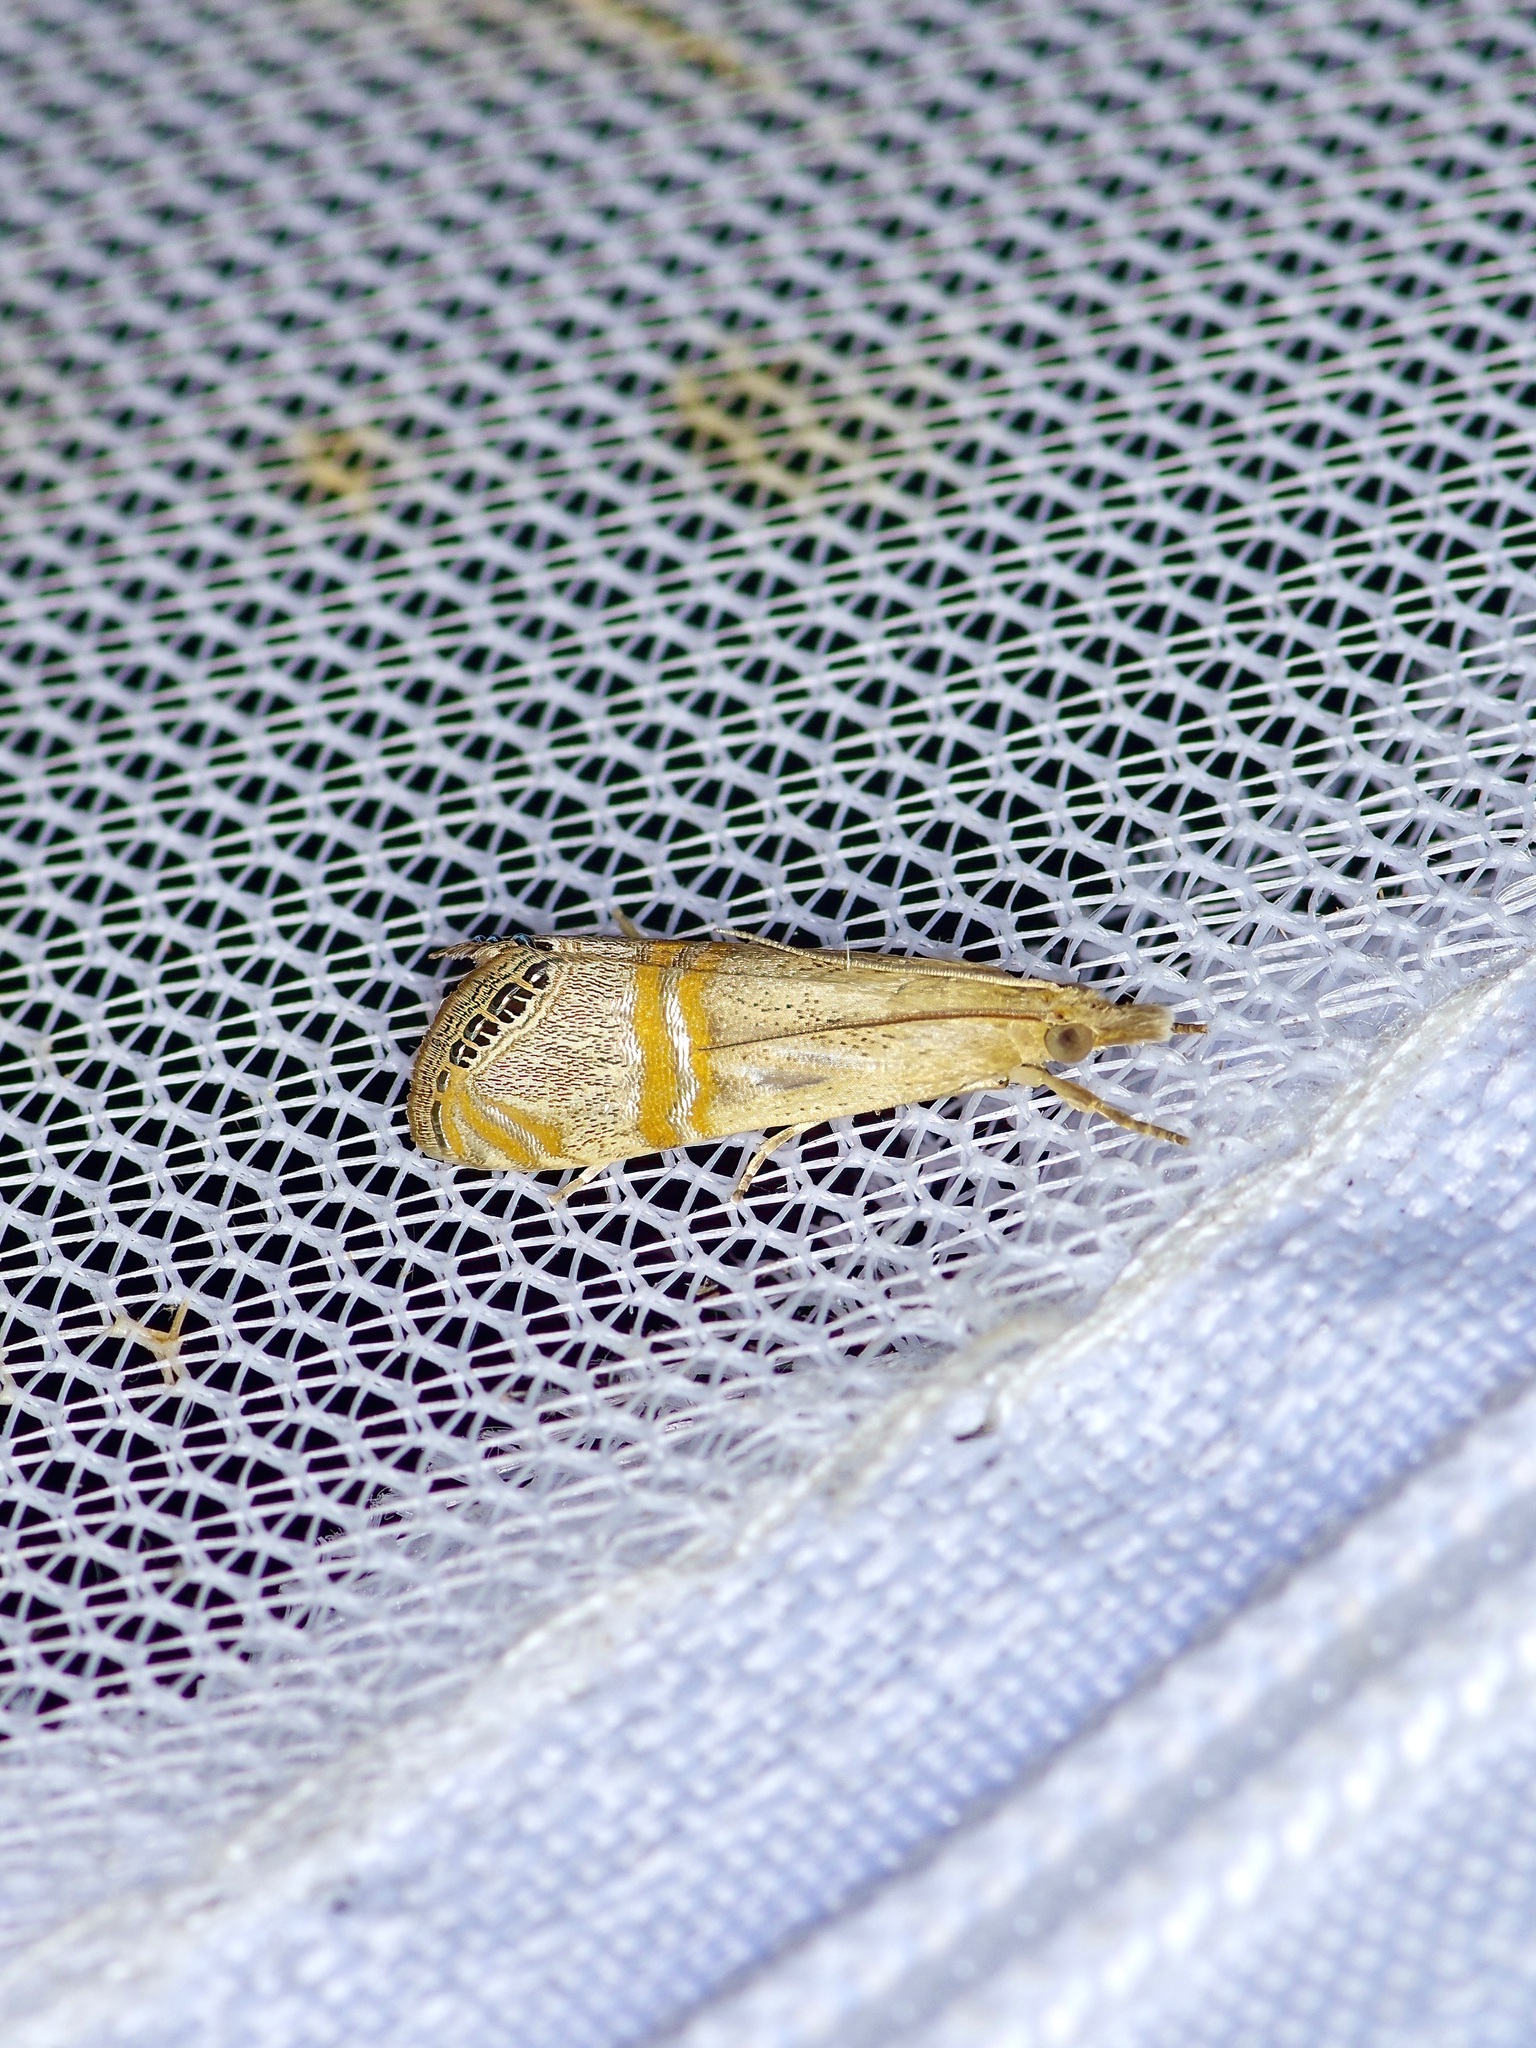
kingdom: Animalia
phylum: Arthropoda
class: Insecta
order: Lepidoptera
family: Crambidae
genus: Euchromius
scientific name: Euchromius ocellea
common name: Necklace veneer moth
